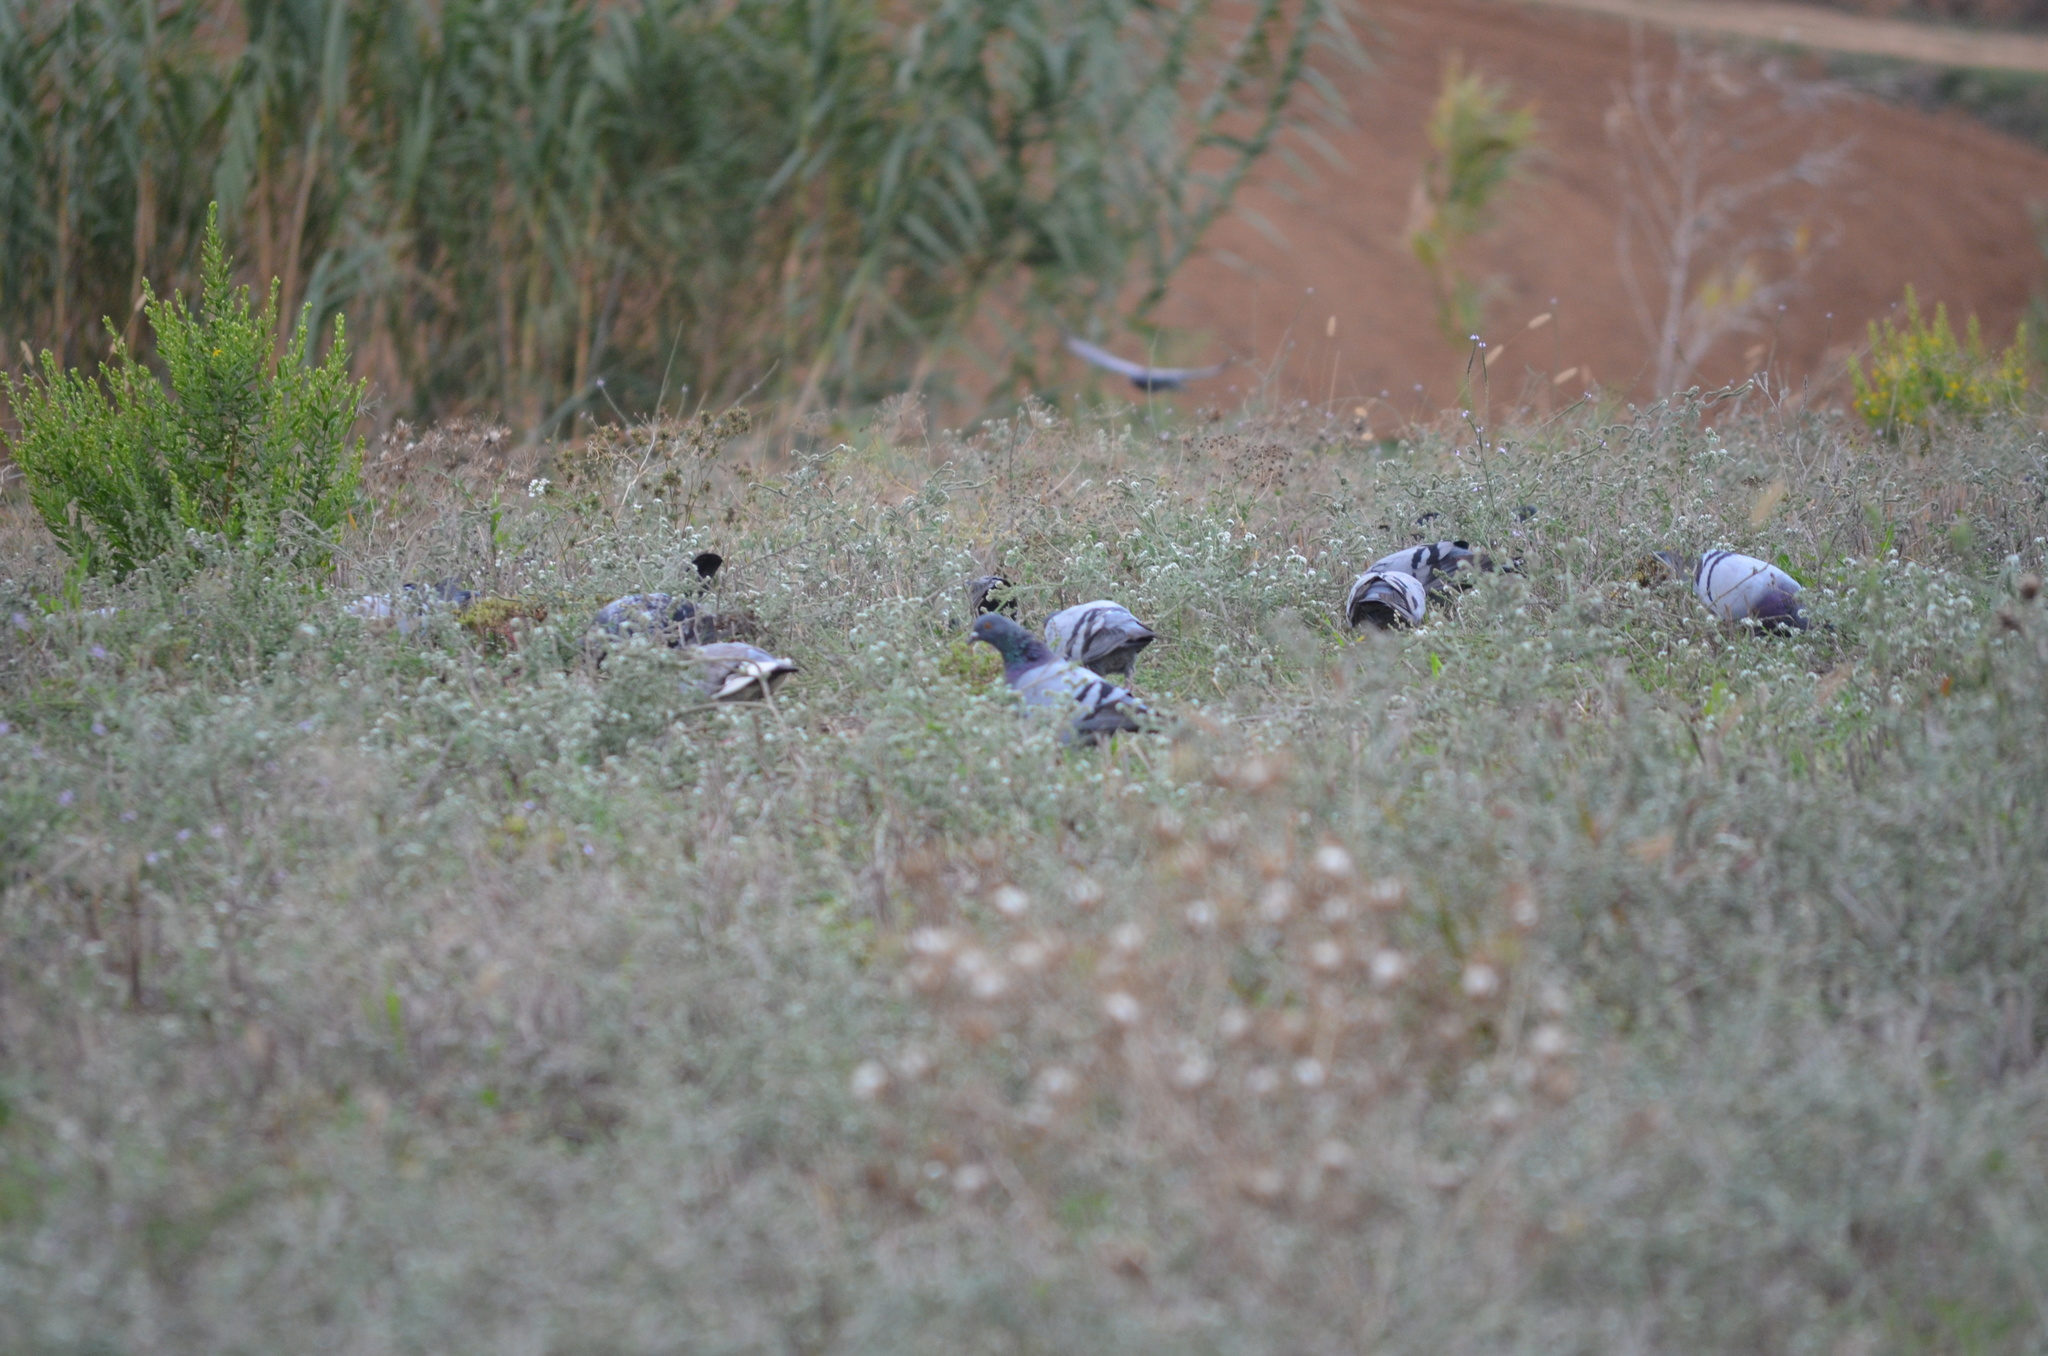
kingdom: Animalia
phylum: Chordata
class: Aves
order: Columbiformes
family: Columbidae
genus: Columba
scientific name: Columba livia
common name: Rock pigeon
